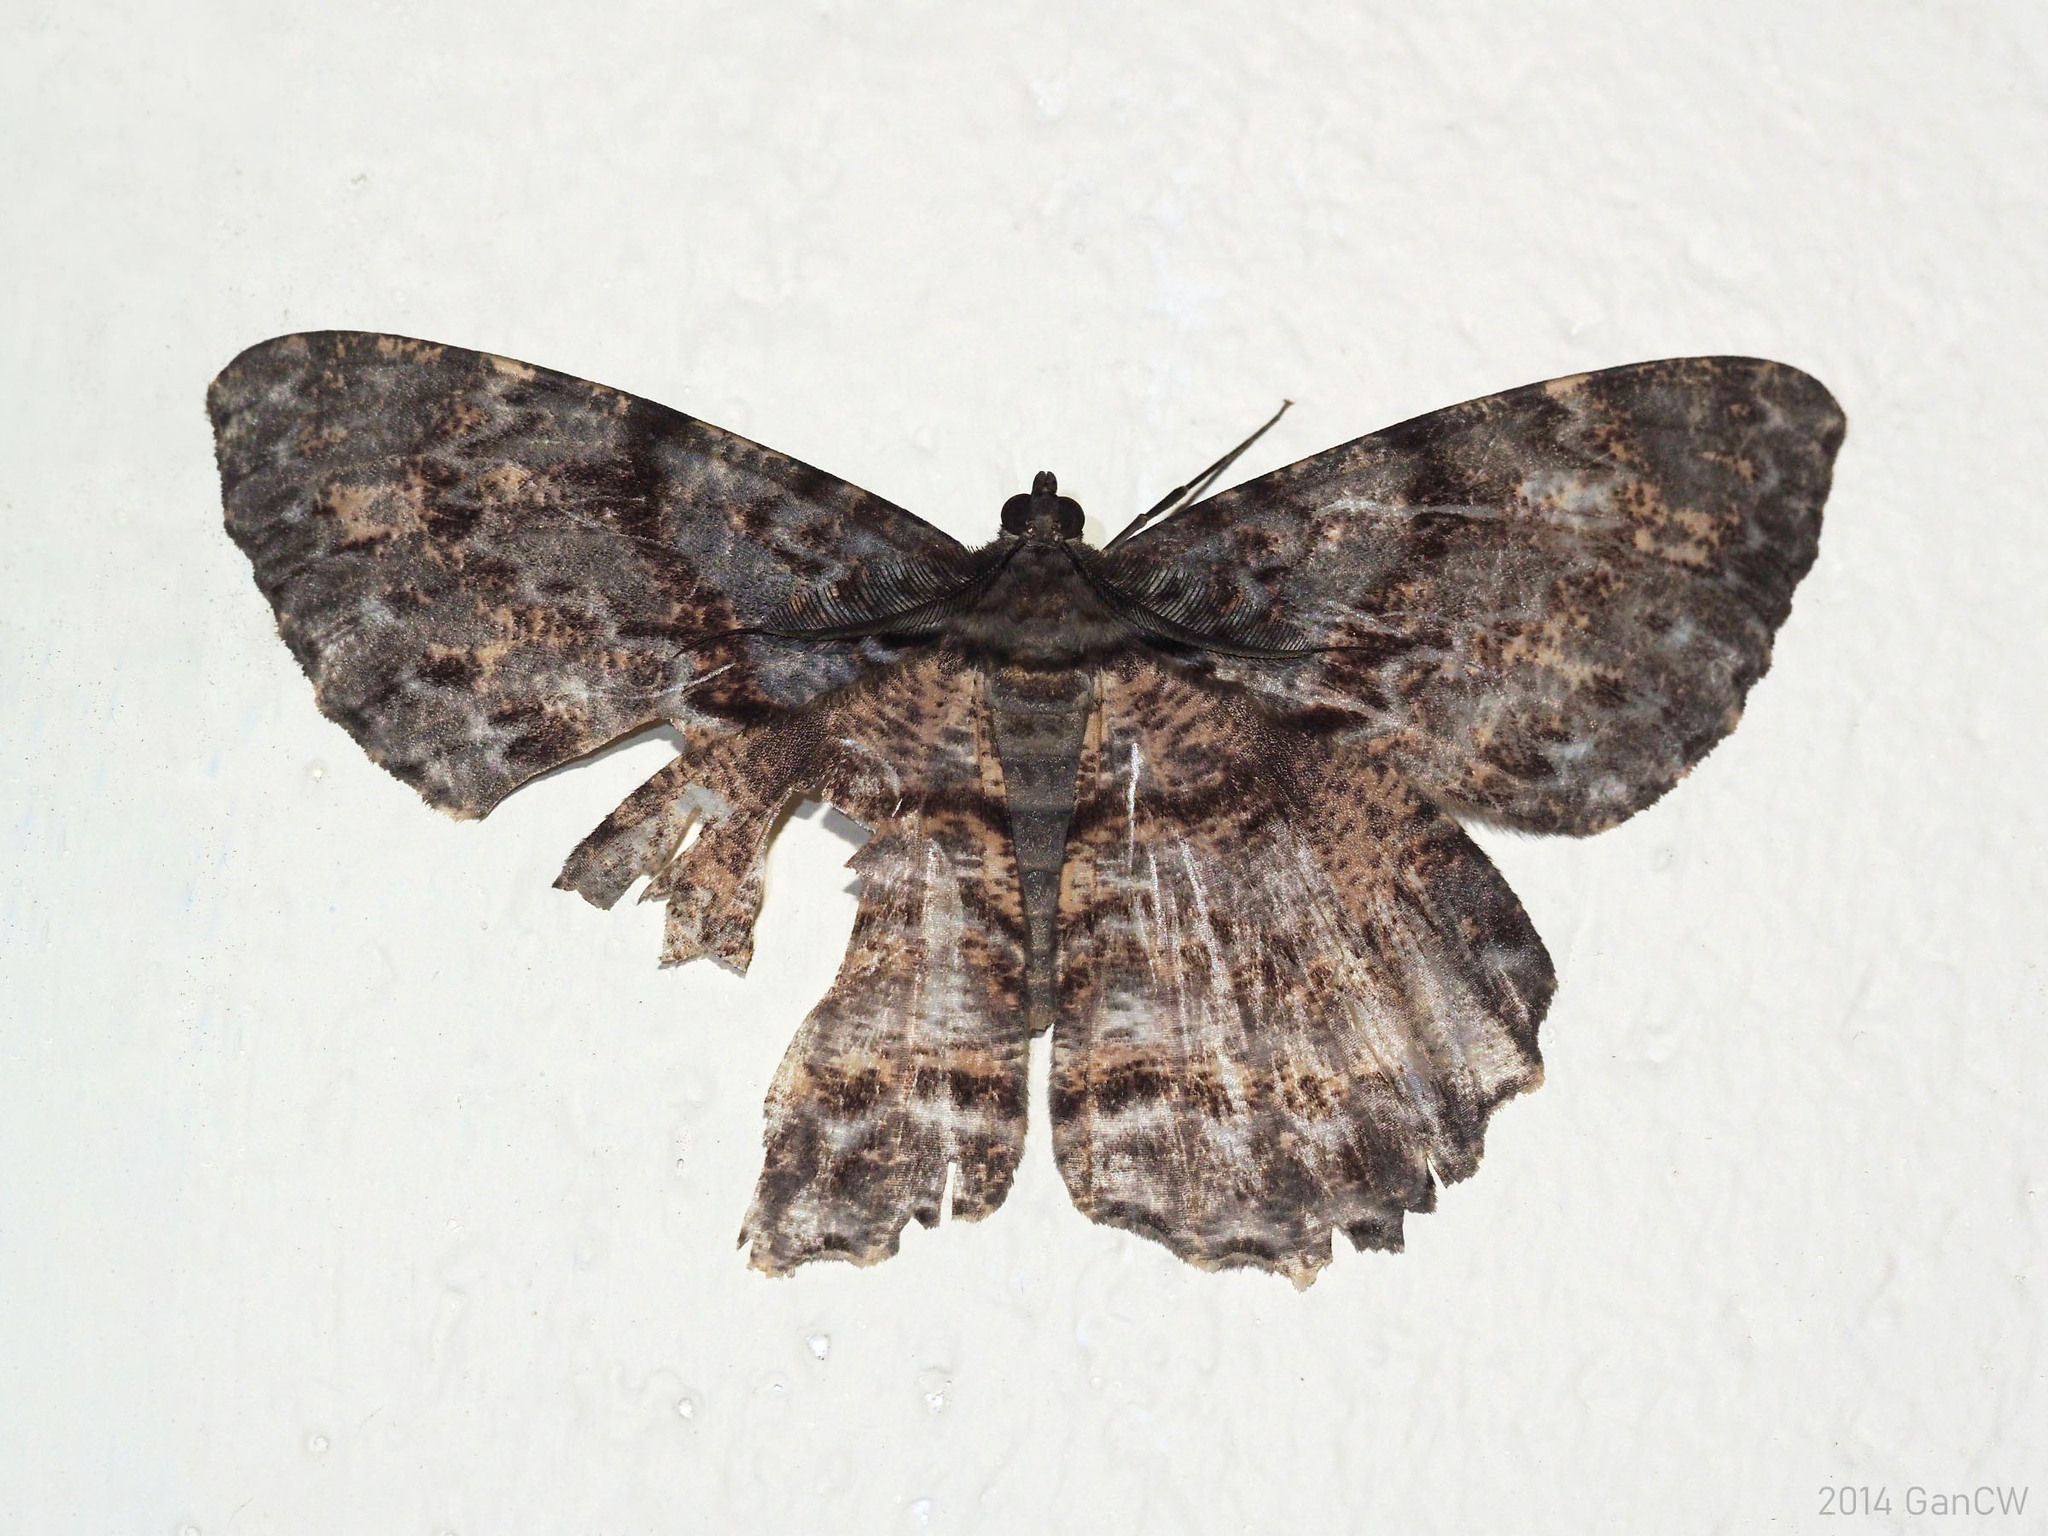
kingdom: Animalia
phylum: Arthropoda
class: Insecta
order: Lepidoptera
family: Geometridae
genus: Amblychia
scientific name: Amblychia sommereri
